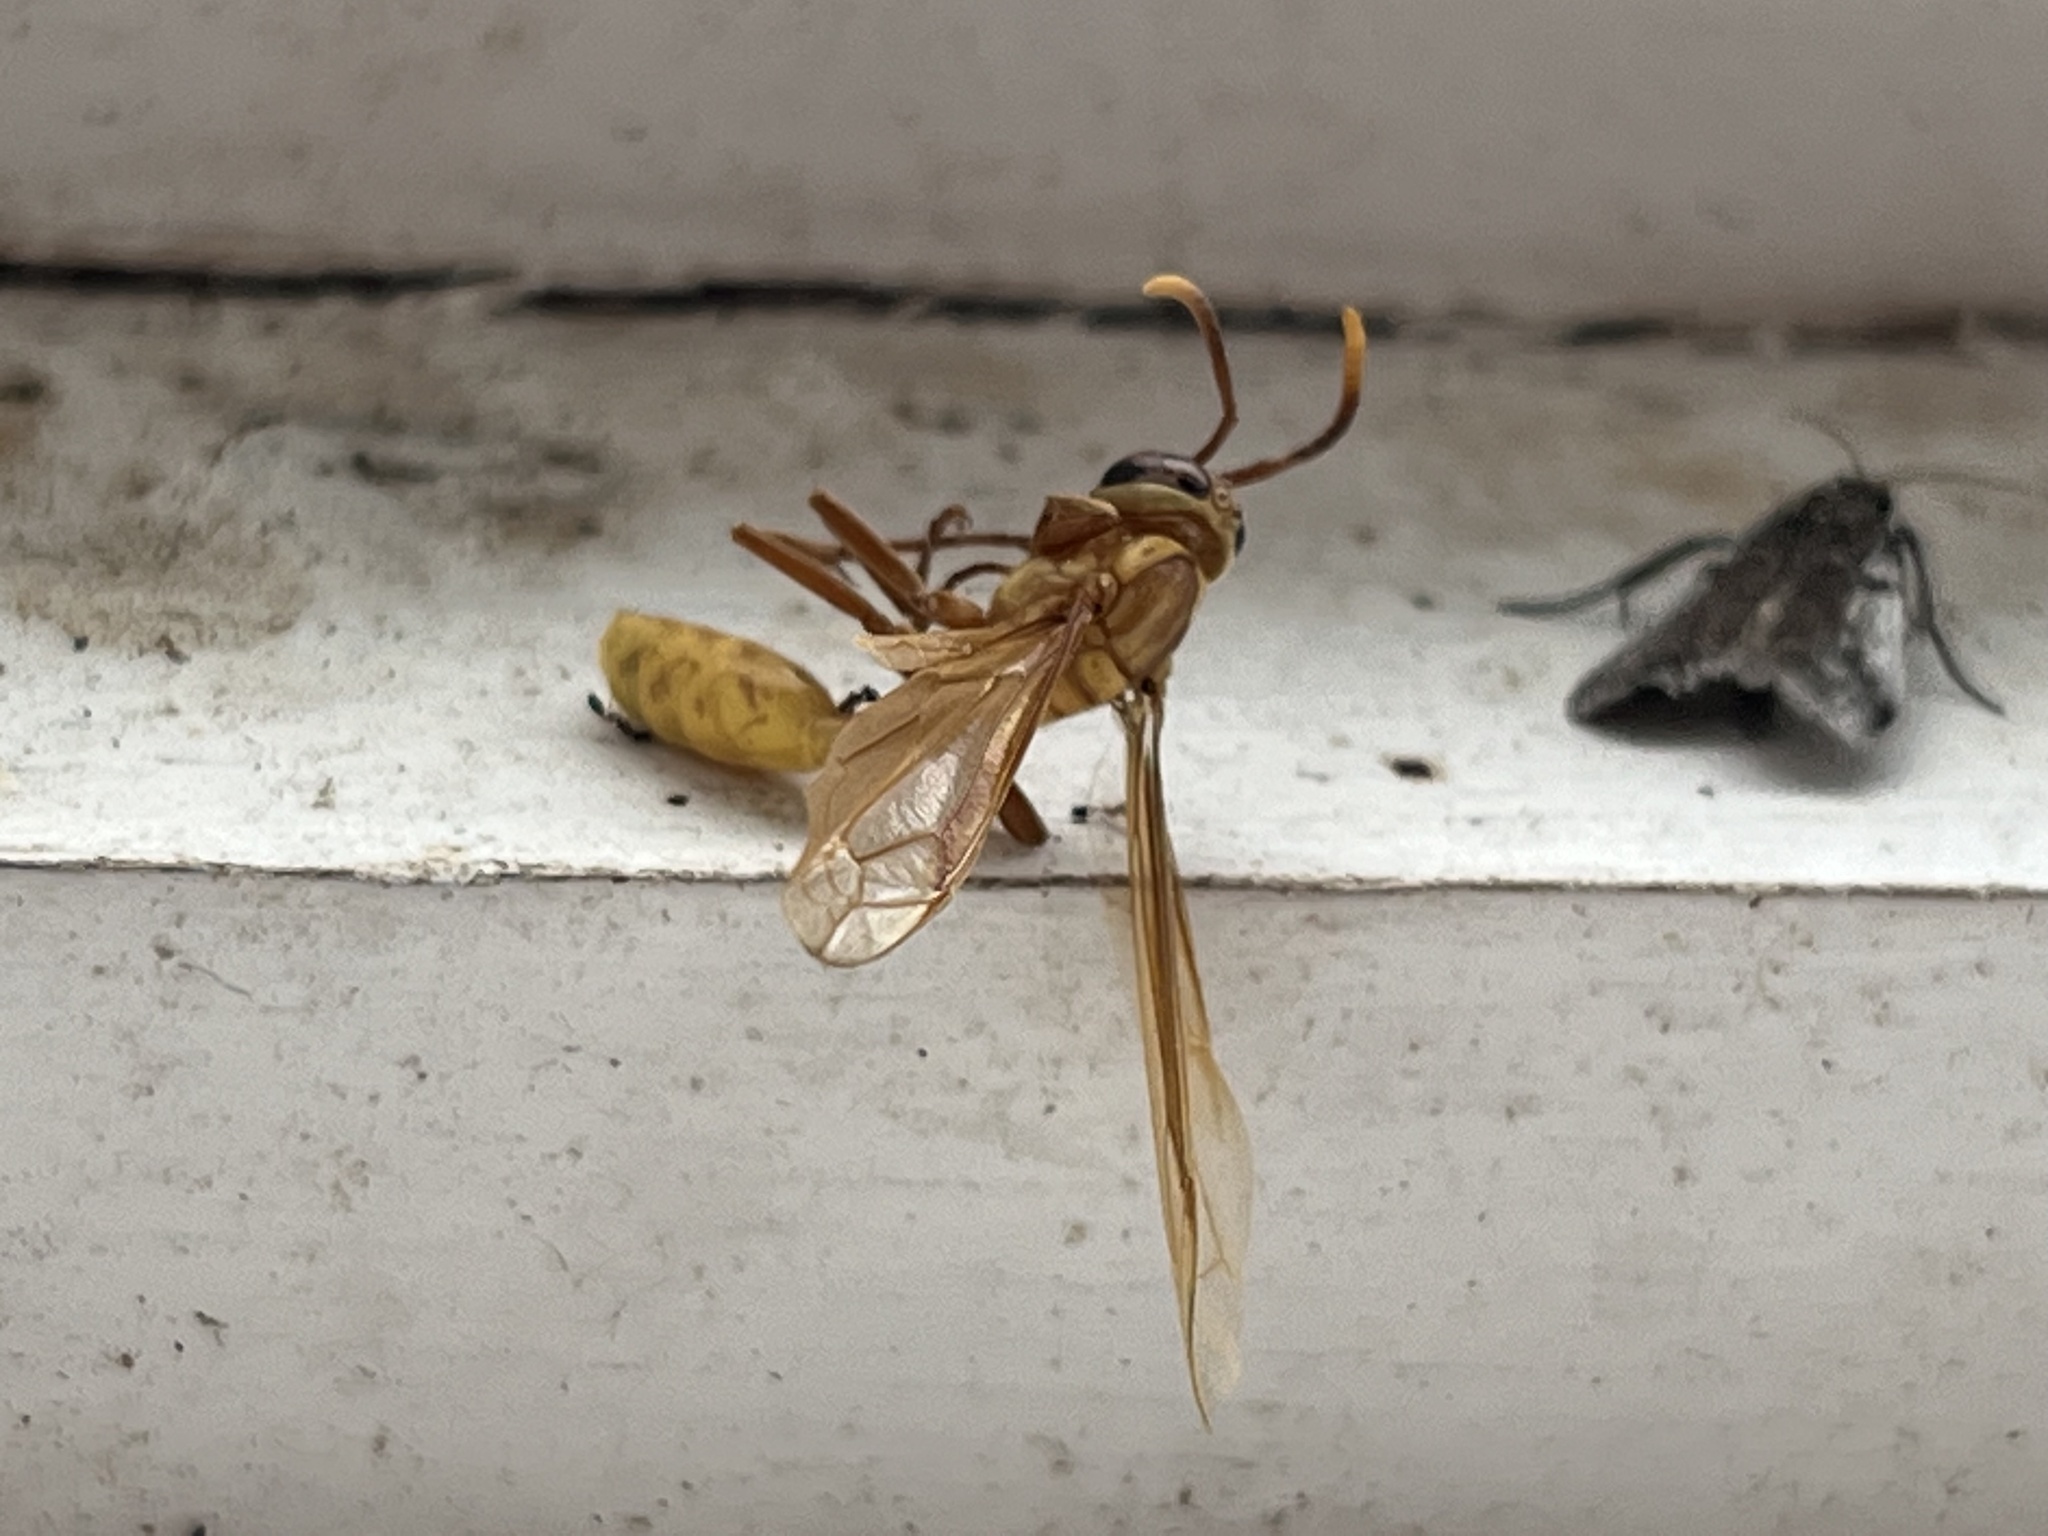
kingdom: Animalia
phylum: Arthropoda
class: Insecta
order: Hymenoptera
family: Vespidae
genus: Apoica
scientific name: Apoica flavissima
